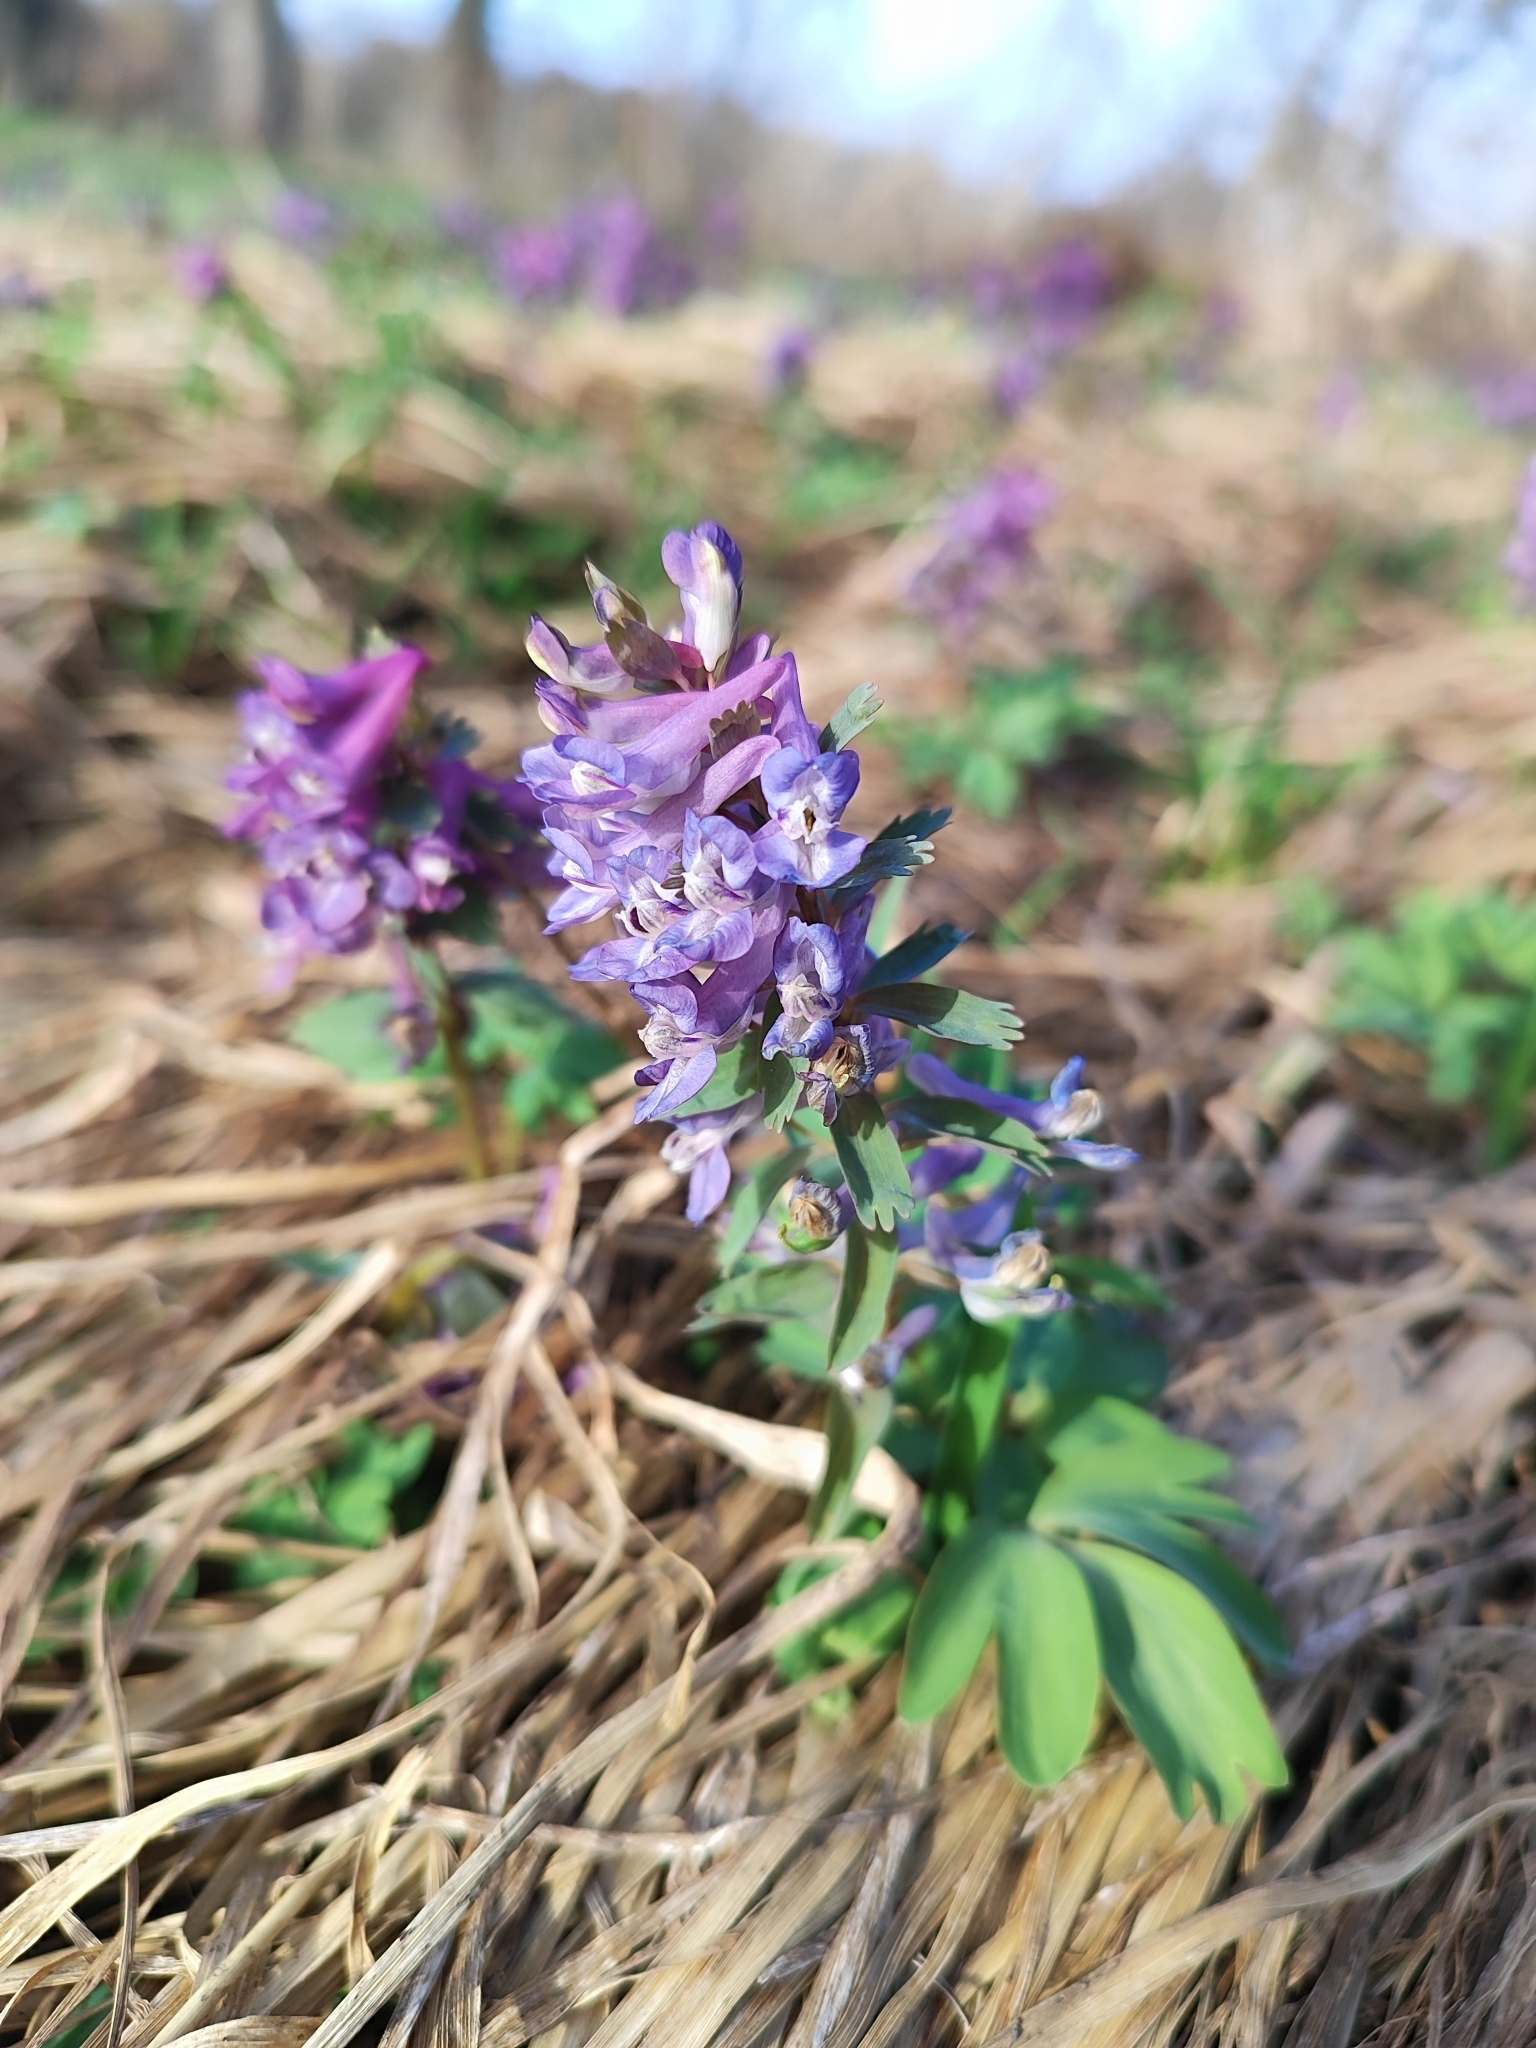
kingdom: Plantae
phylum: Tracheophyta
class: Magnoliopsida
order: Ranunculales
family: Papaveraceae
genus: Corydalis
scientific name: Corydalis solida
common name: Bird-in-a-bush
